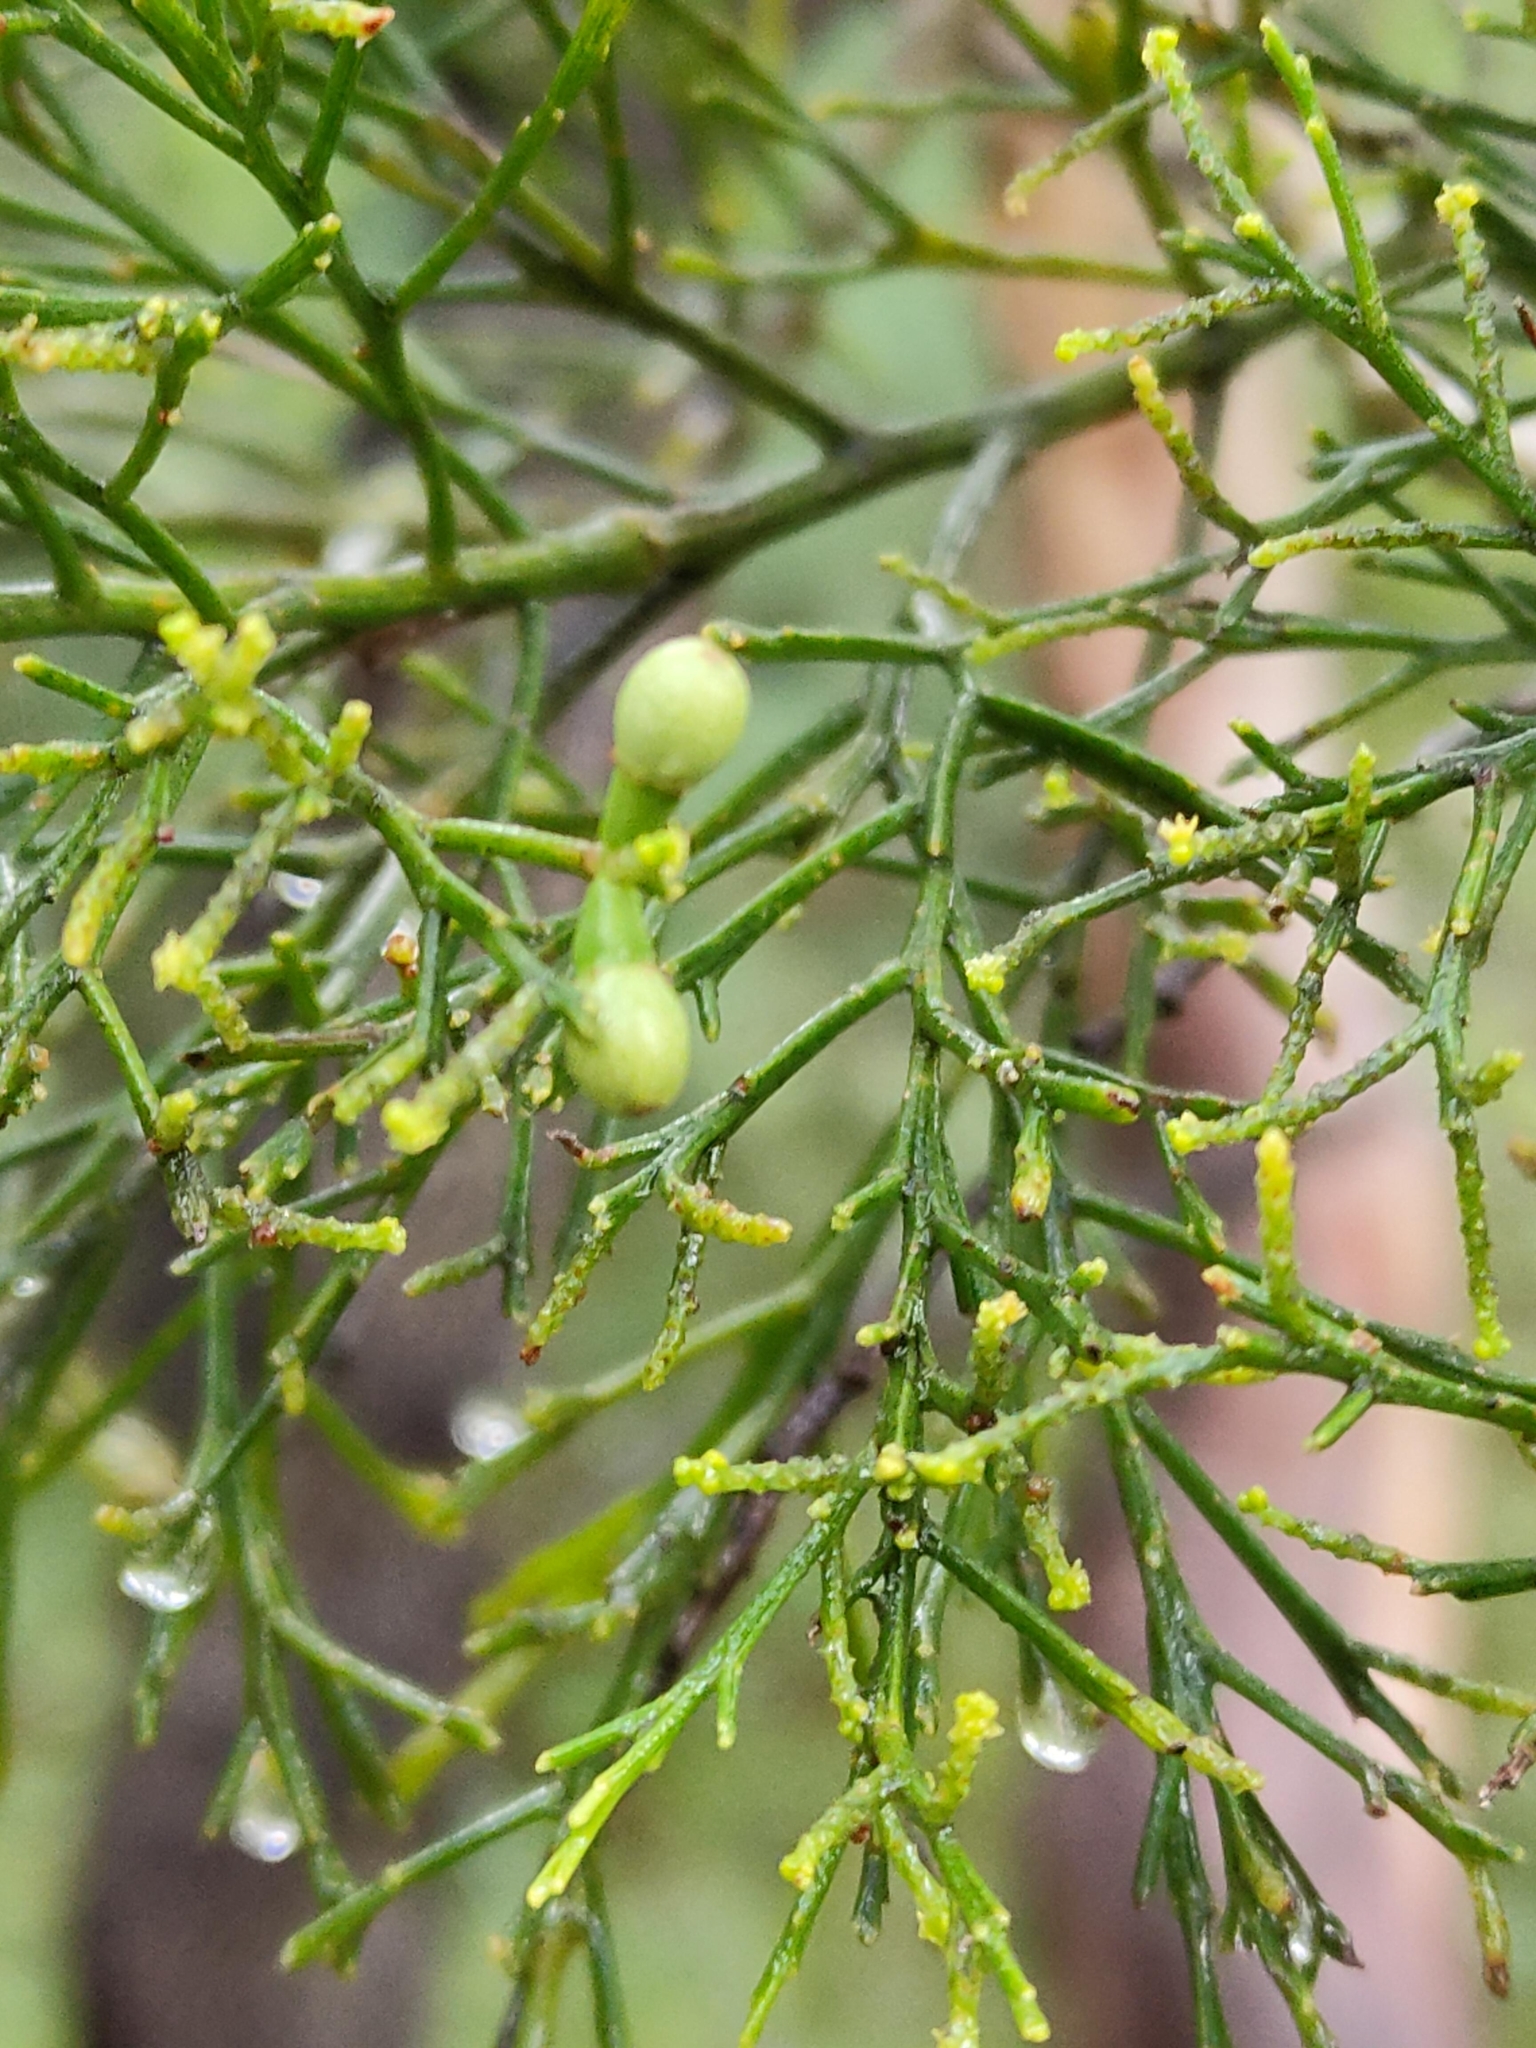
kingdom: Plantae
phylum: Tracheophyta
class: Magnoliopsida
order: Santalales
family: Santalaceae
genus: Exocarpos
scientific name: Exocarpos cupressiformis
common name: Cherry ballart
